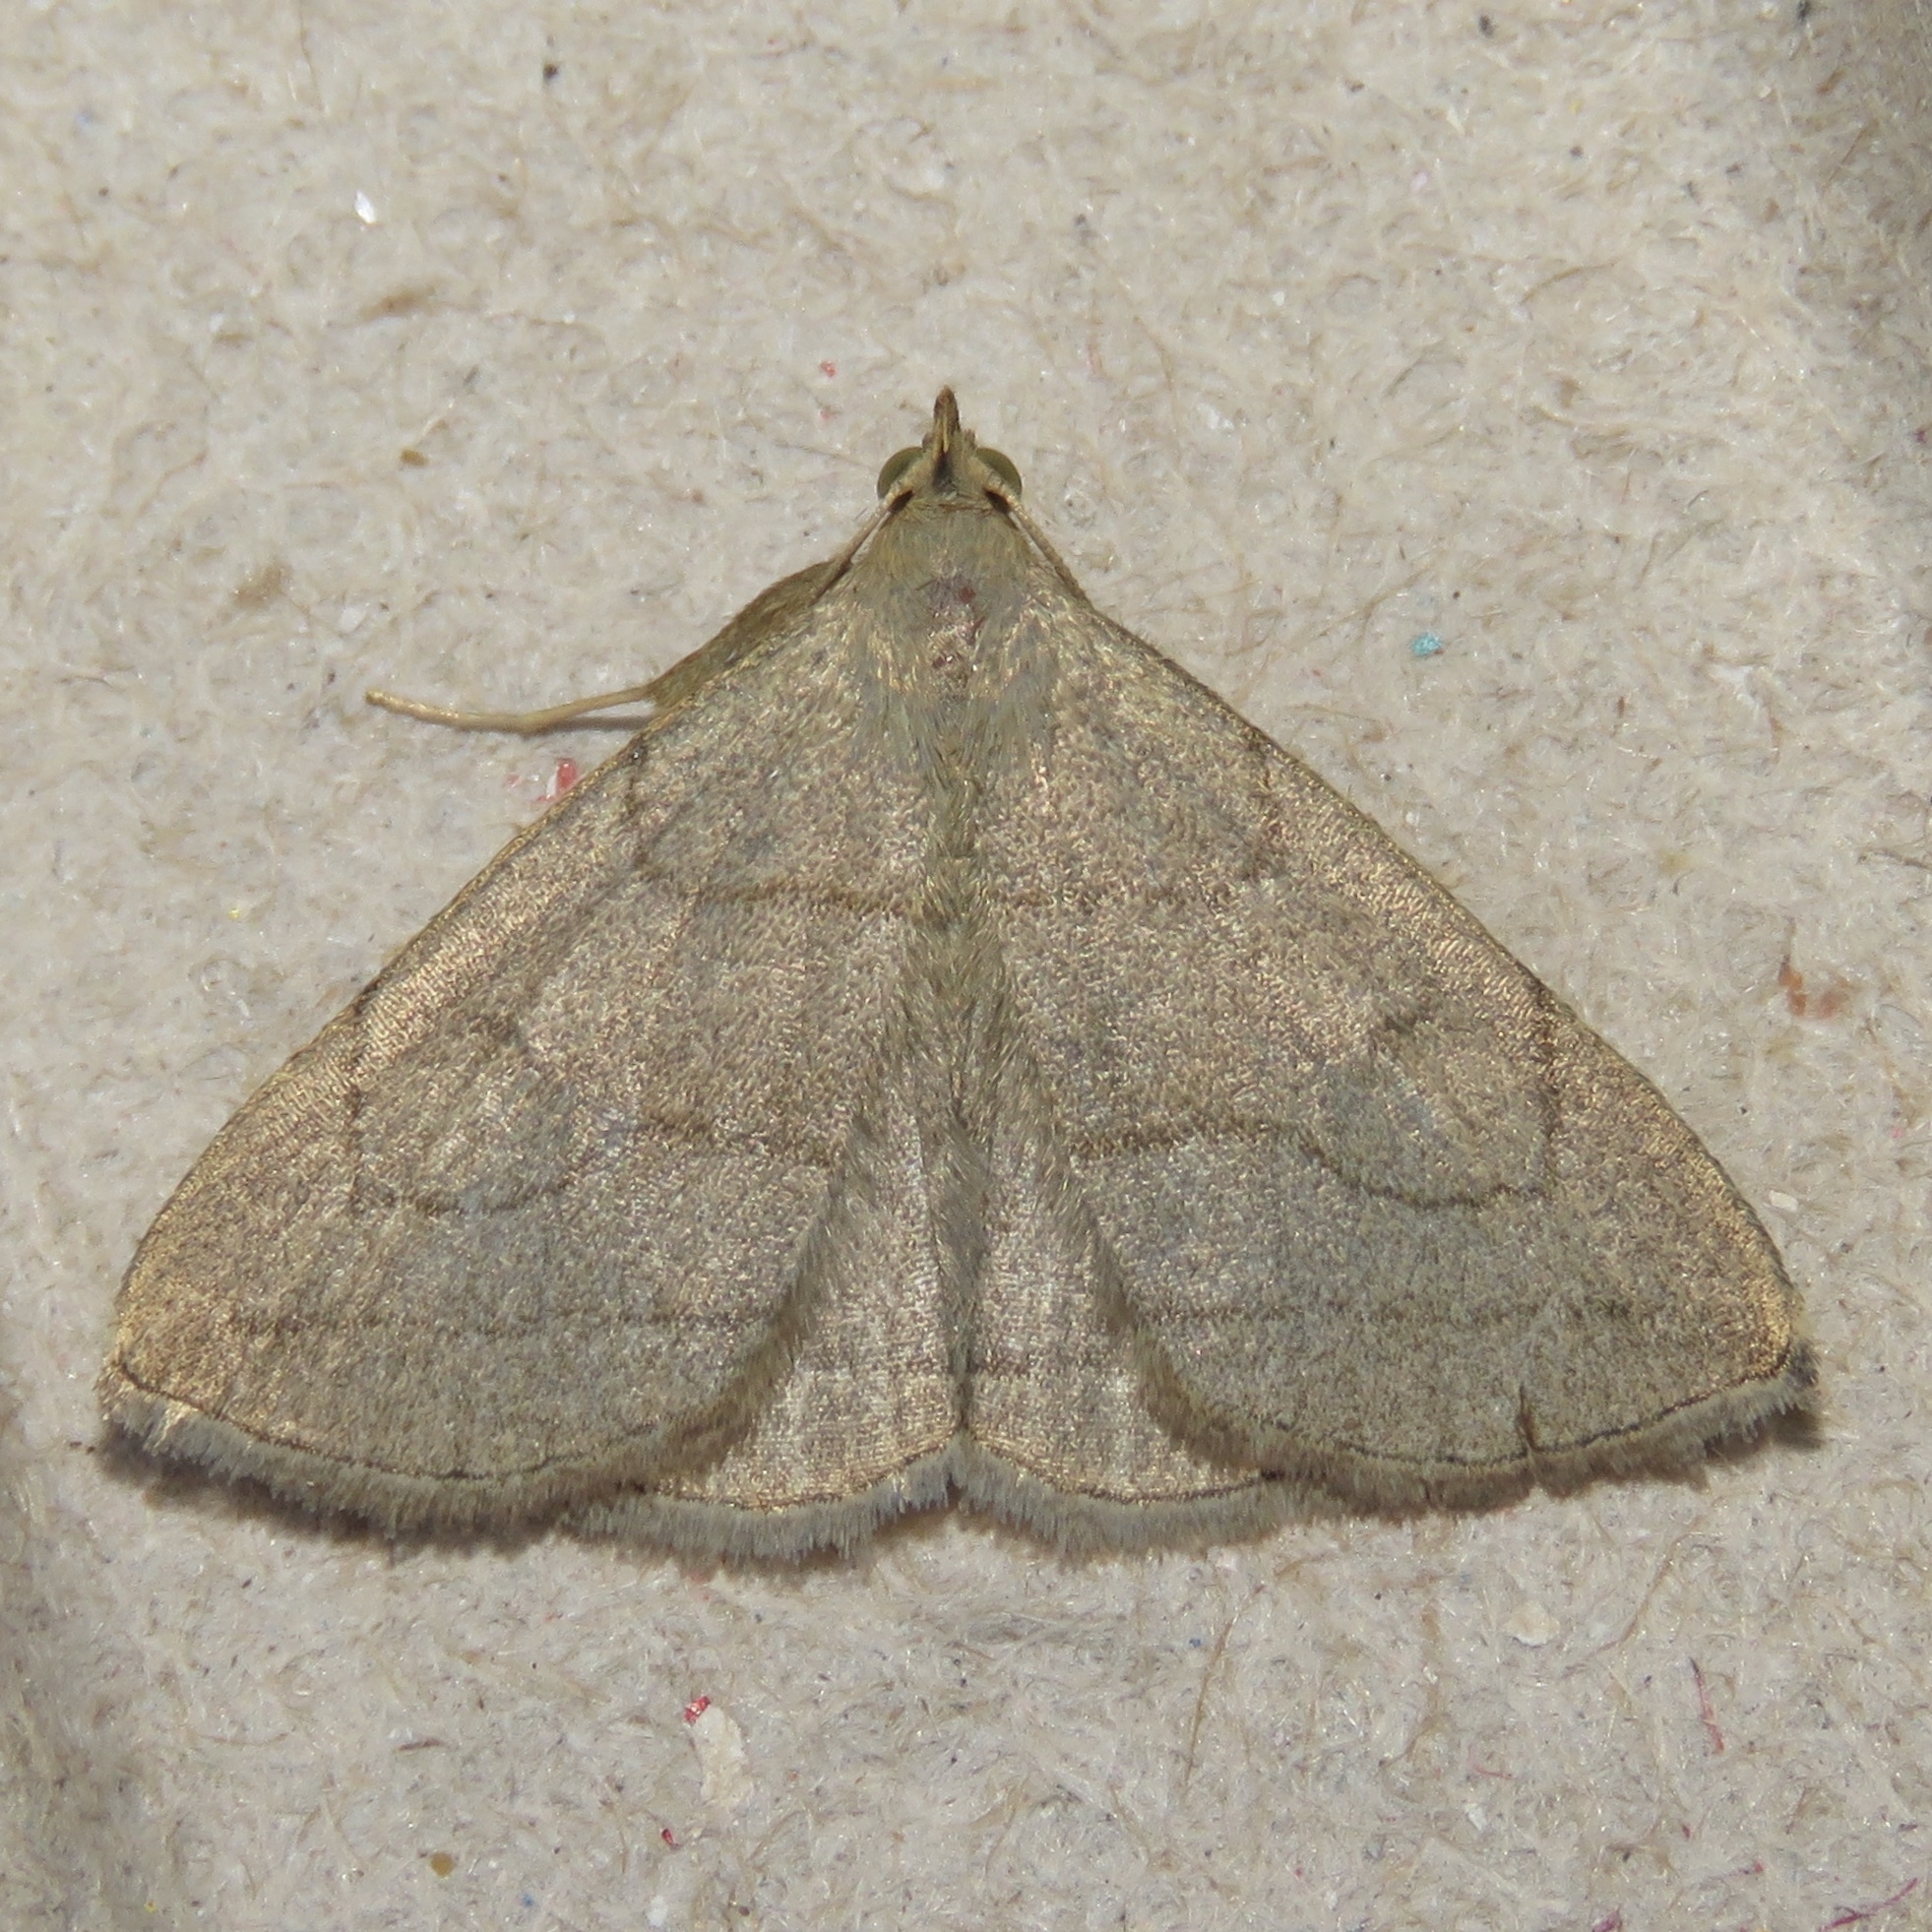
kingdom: Animalia
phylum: Arthropoda
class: Insecta
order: Lepidoptera
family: Erebidae
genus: Zanclognatha
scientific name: Zanclognatha pedipilalis
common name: Grayish fan-foot
